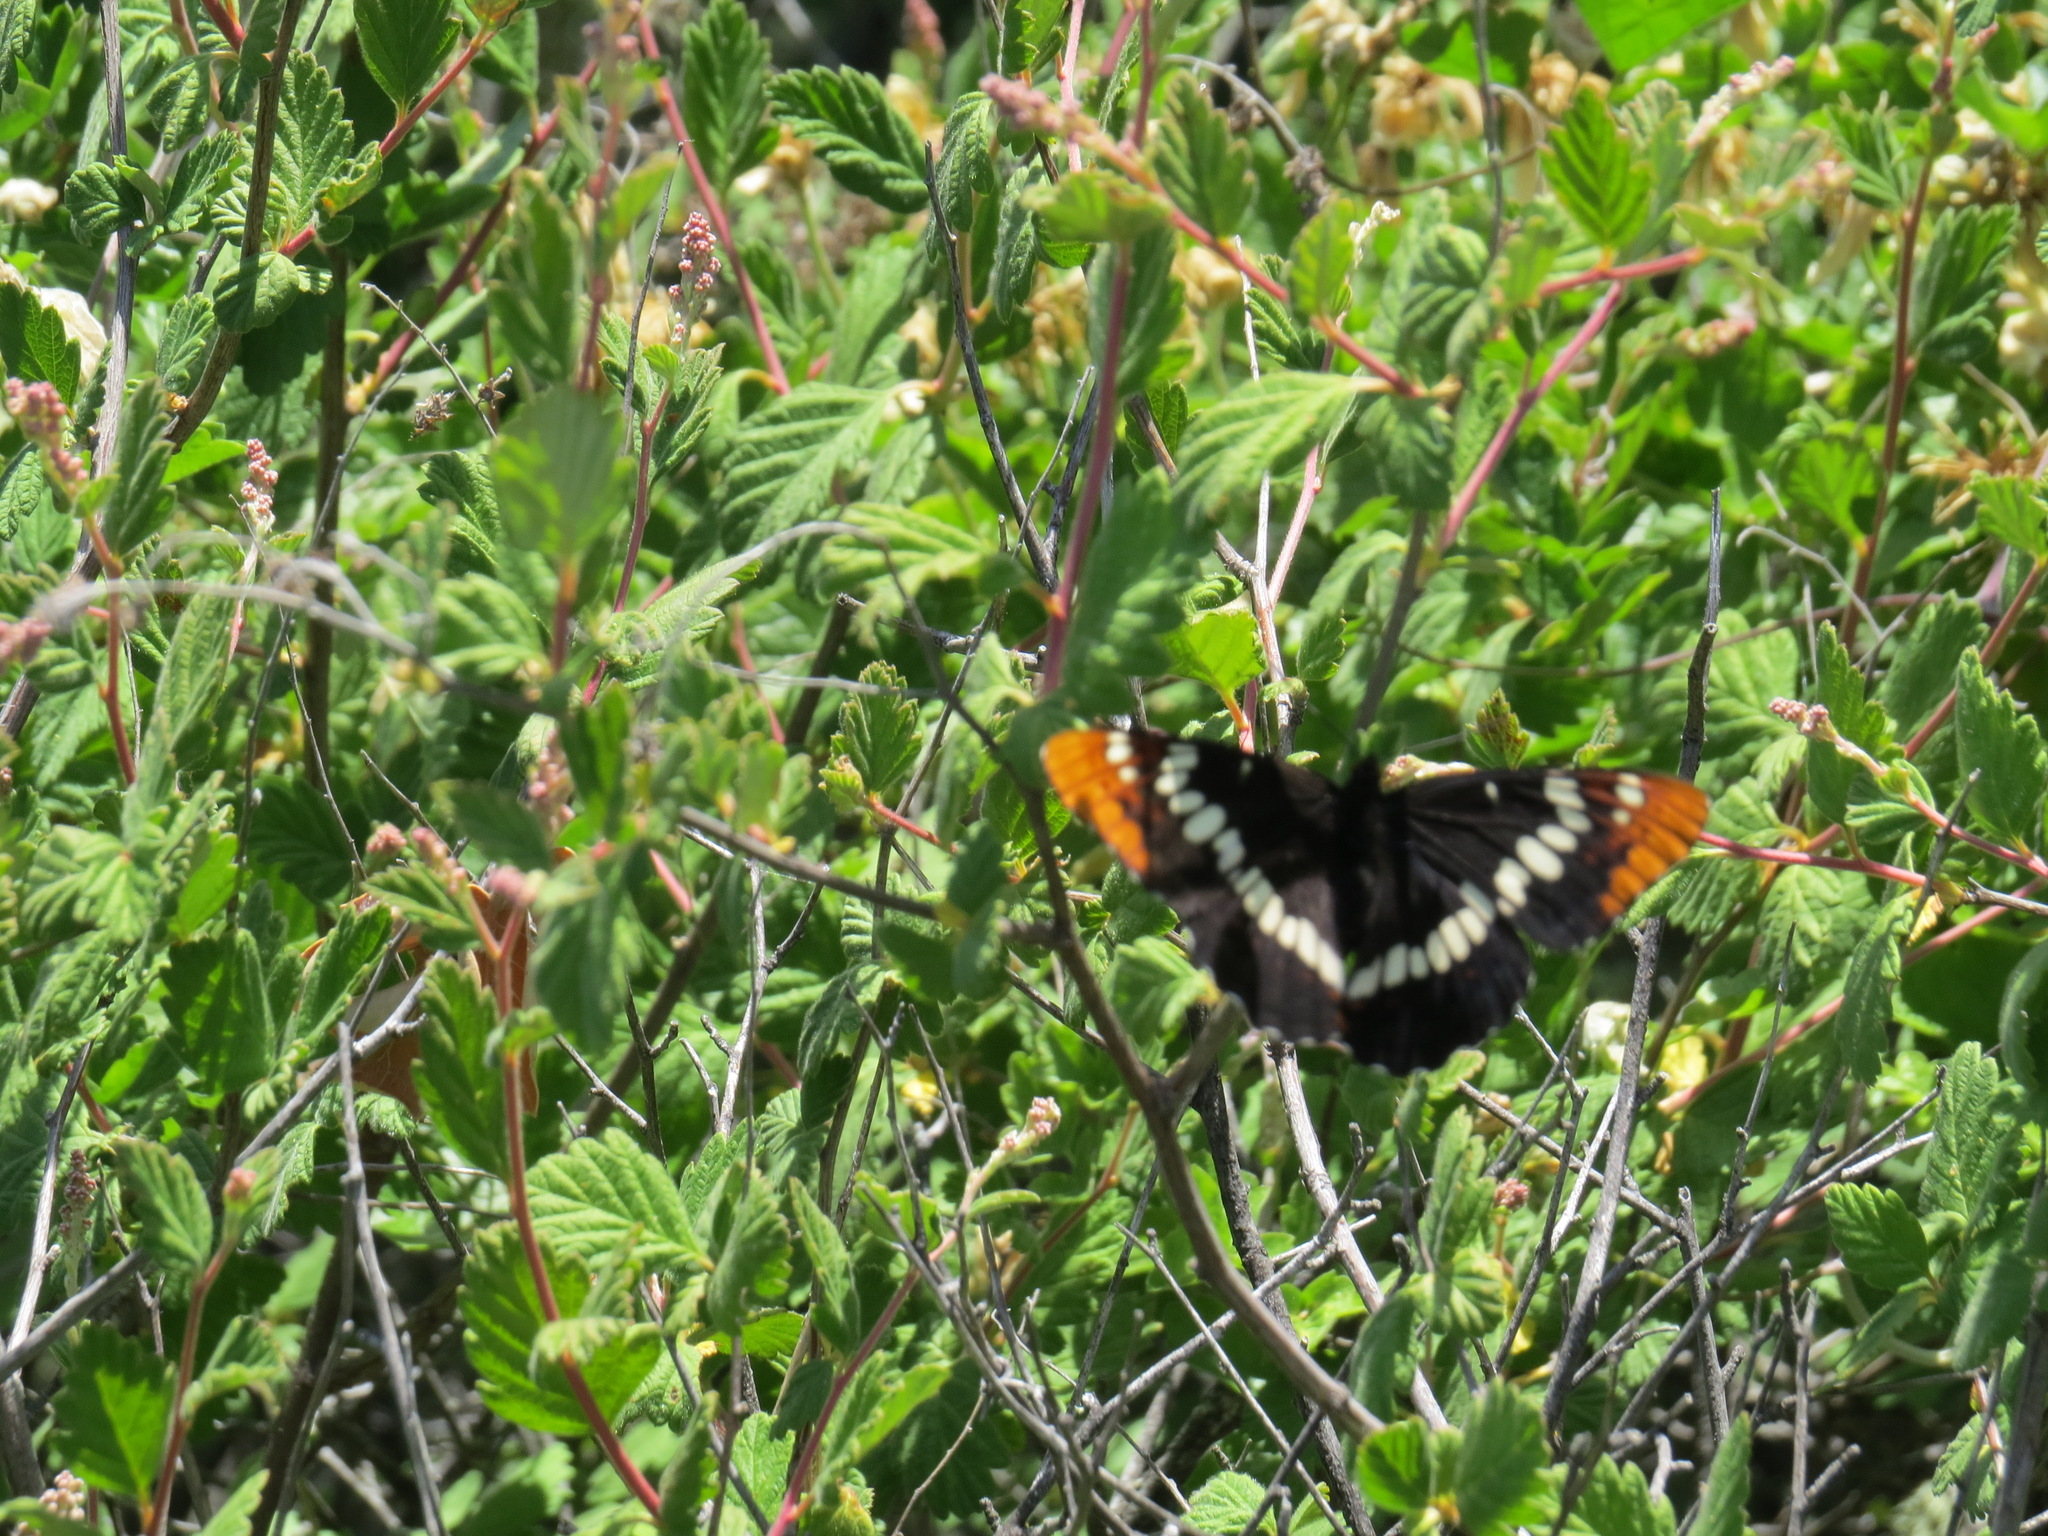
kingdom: Animalia
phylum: Arthropoda
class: Insecta
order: Lepidoptera
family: Nymphalidae
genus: Limenitis
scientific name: Limenitis lorquini
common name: Lorquin's admiral
